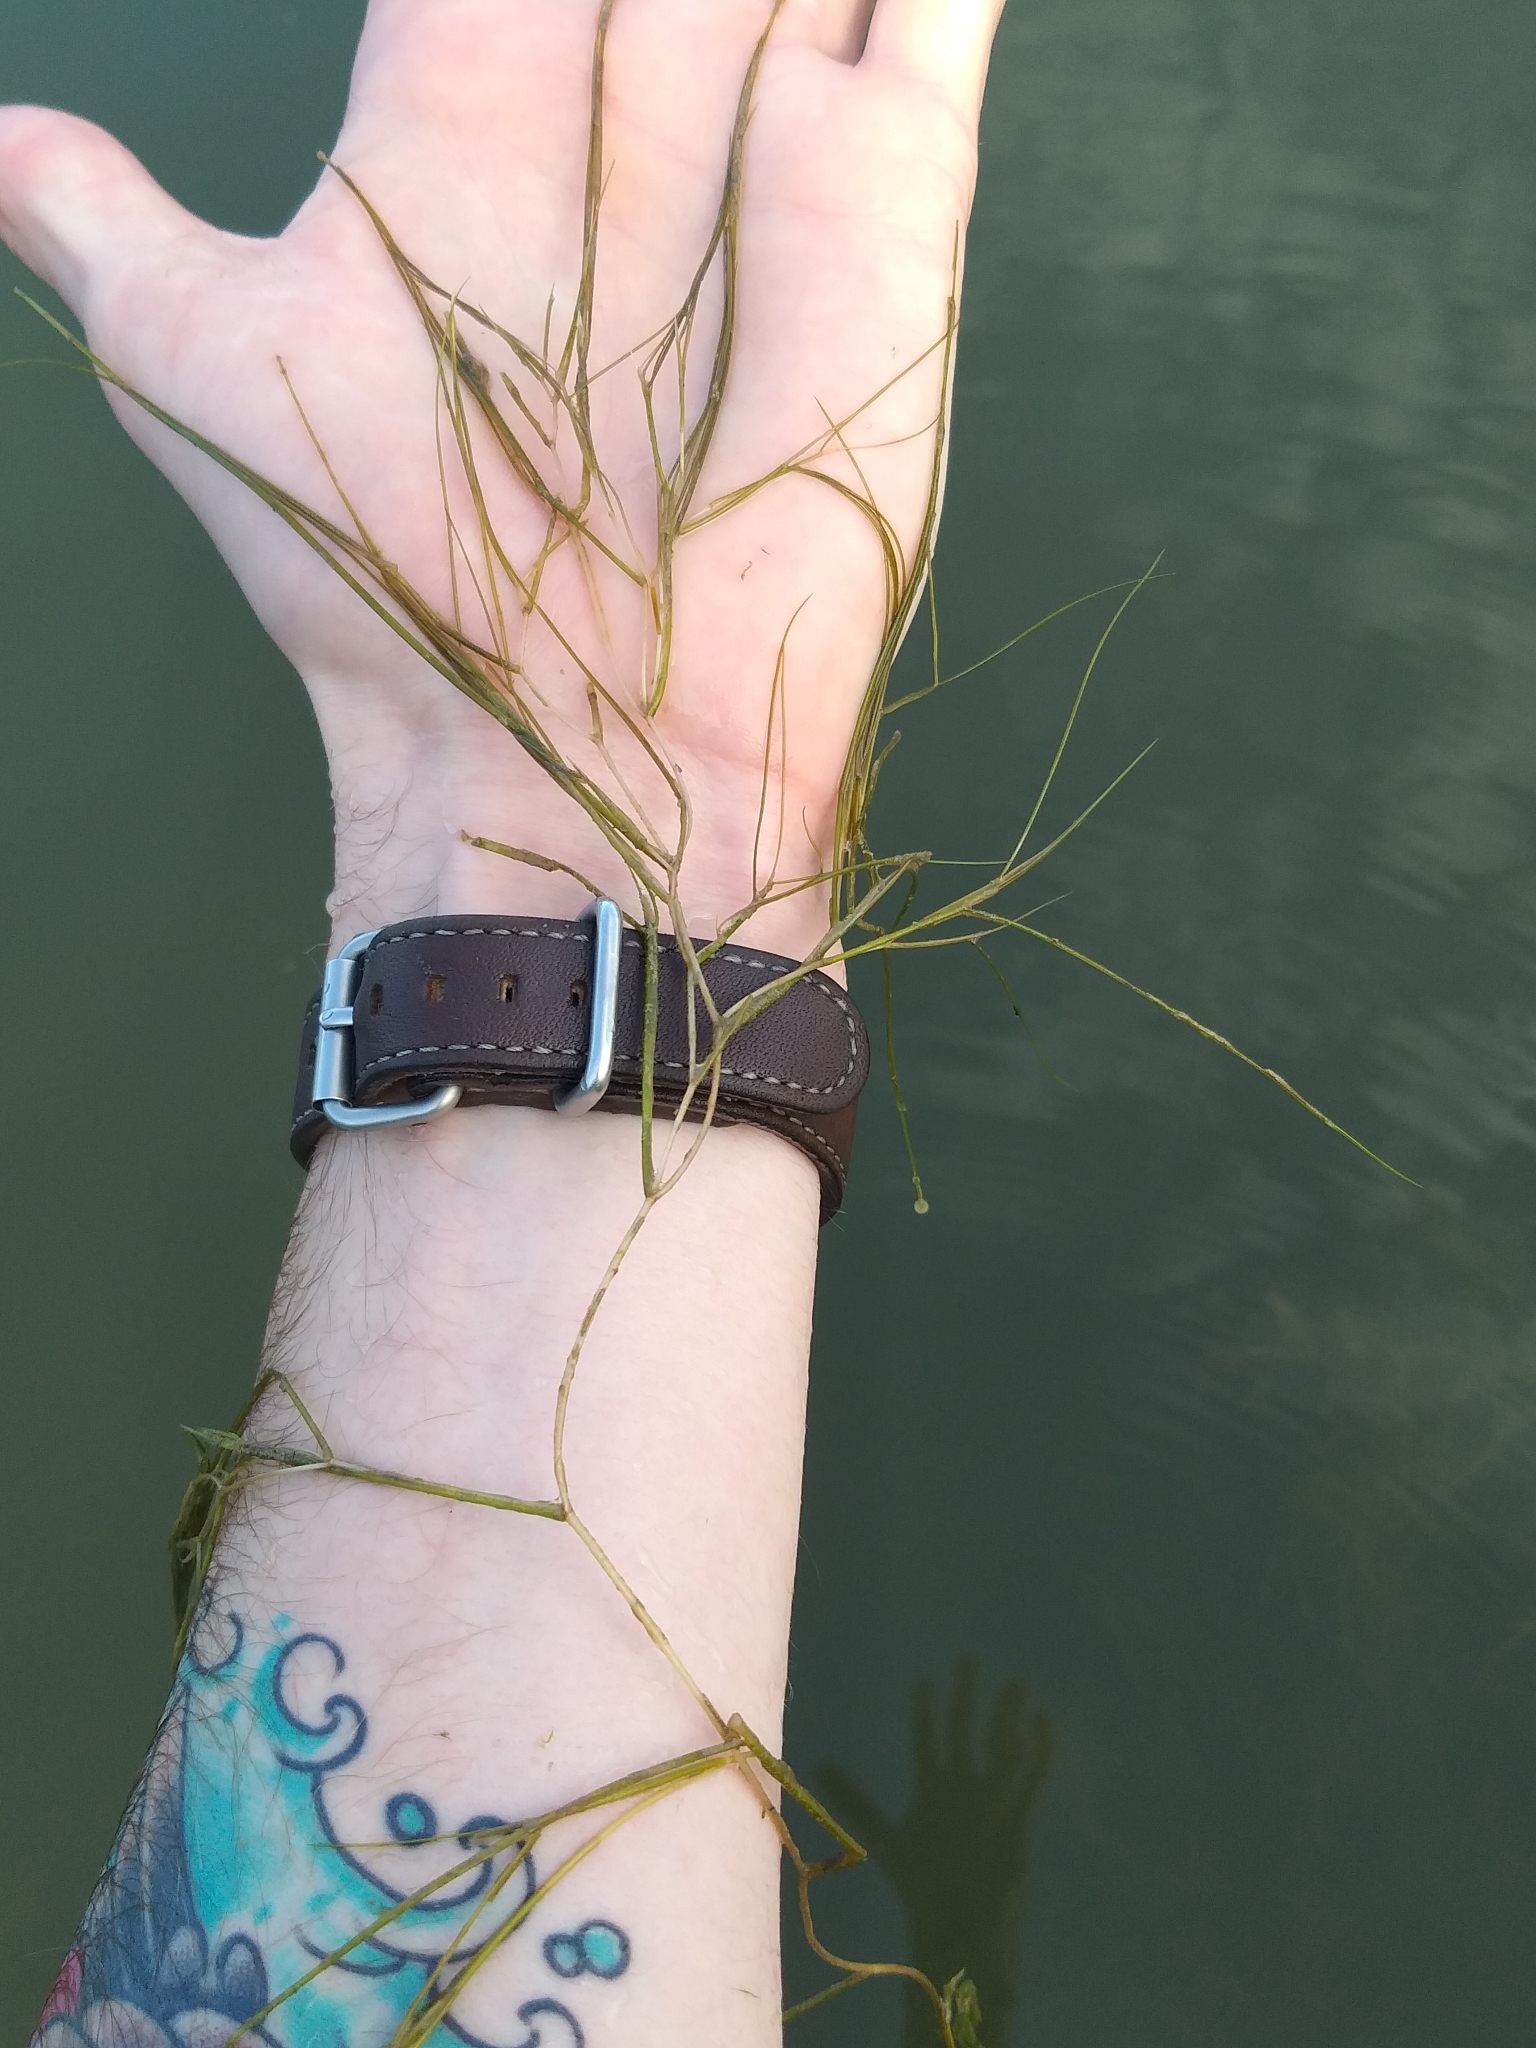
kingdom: Plantae
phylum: Tracheophyta
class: Liliopsida
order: Alismatales
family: Potamogetonaceae
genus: Stuckenia
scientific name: Stuckenia pectinata
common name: Sago pondweed
